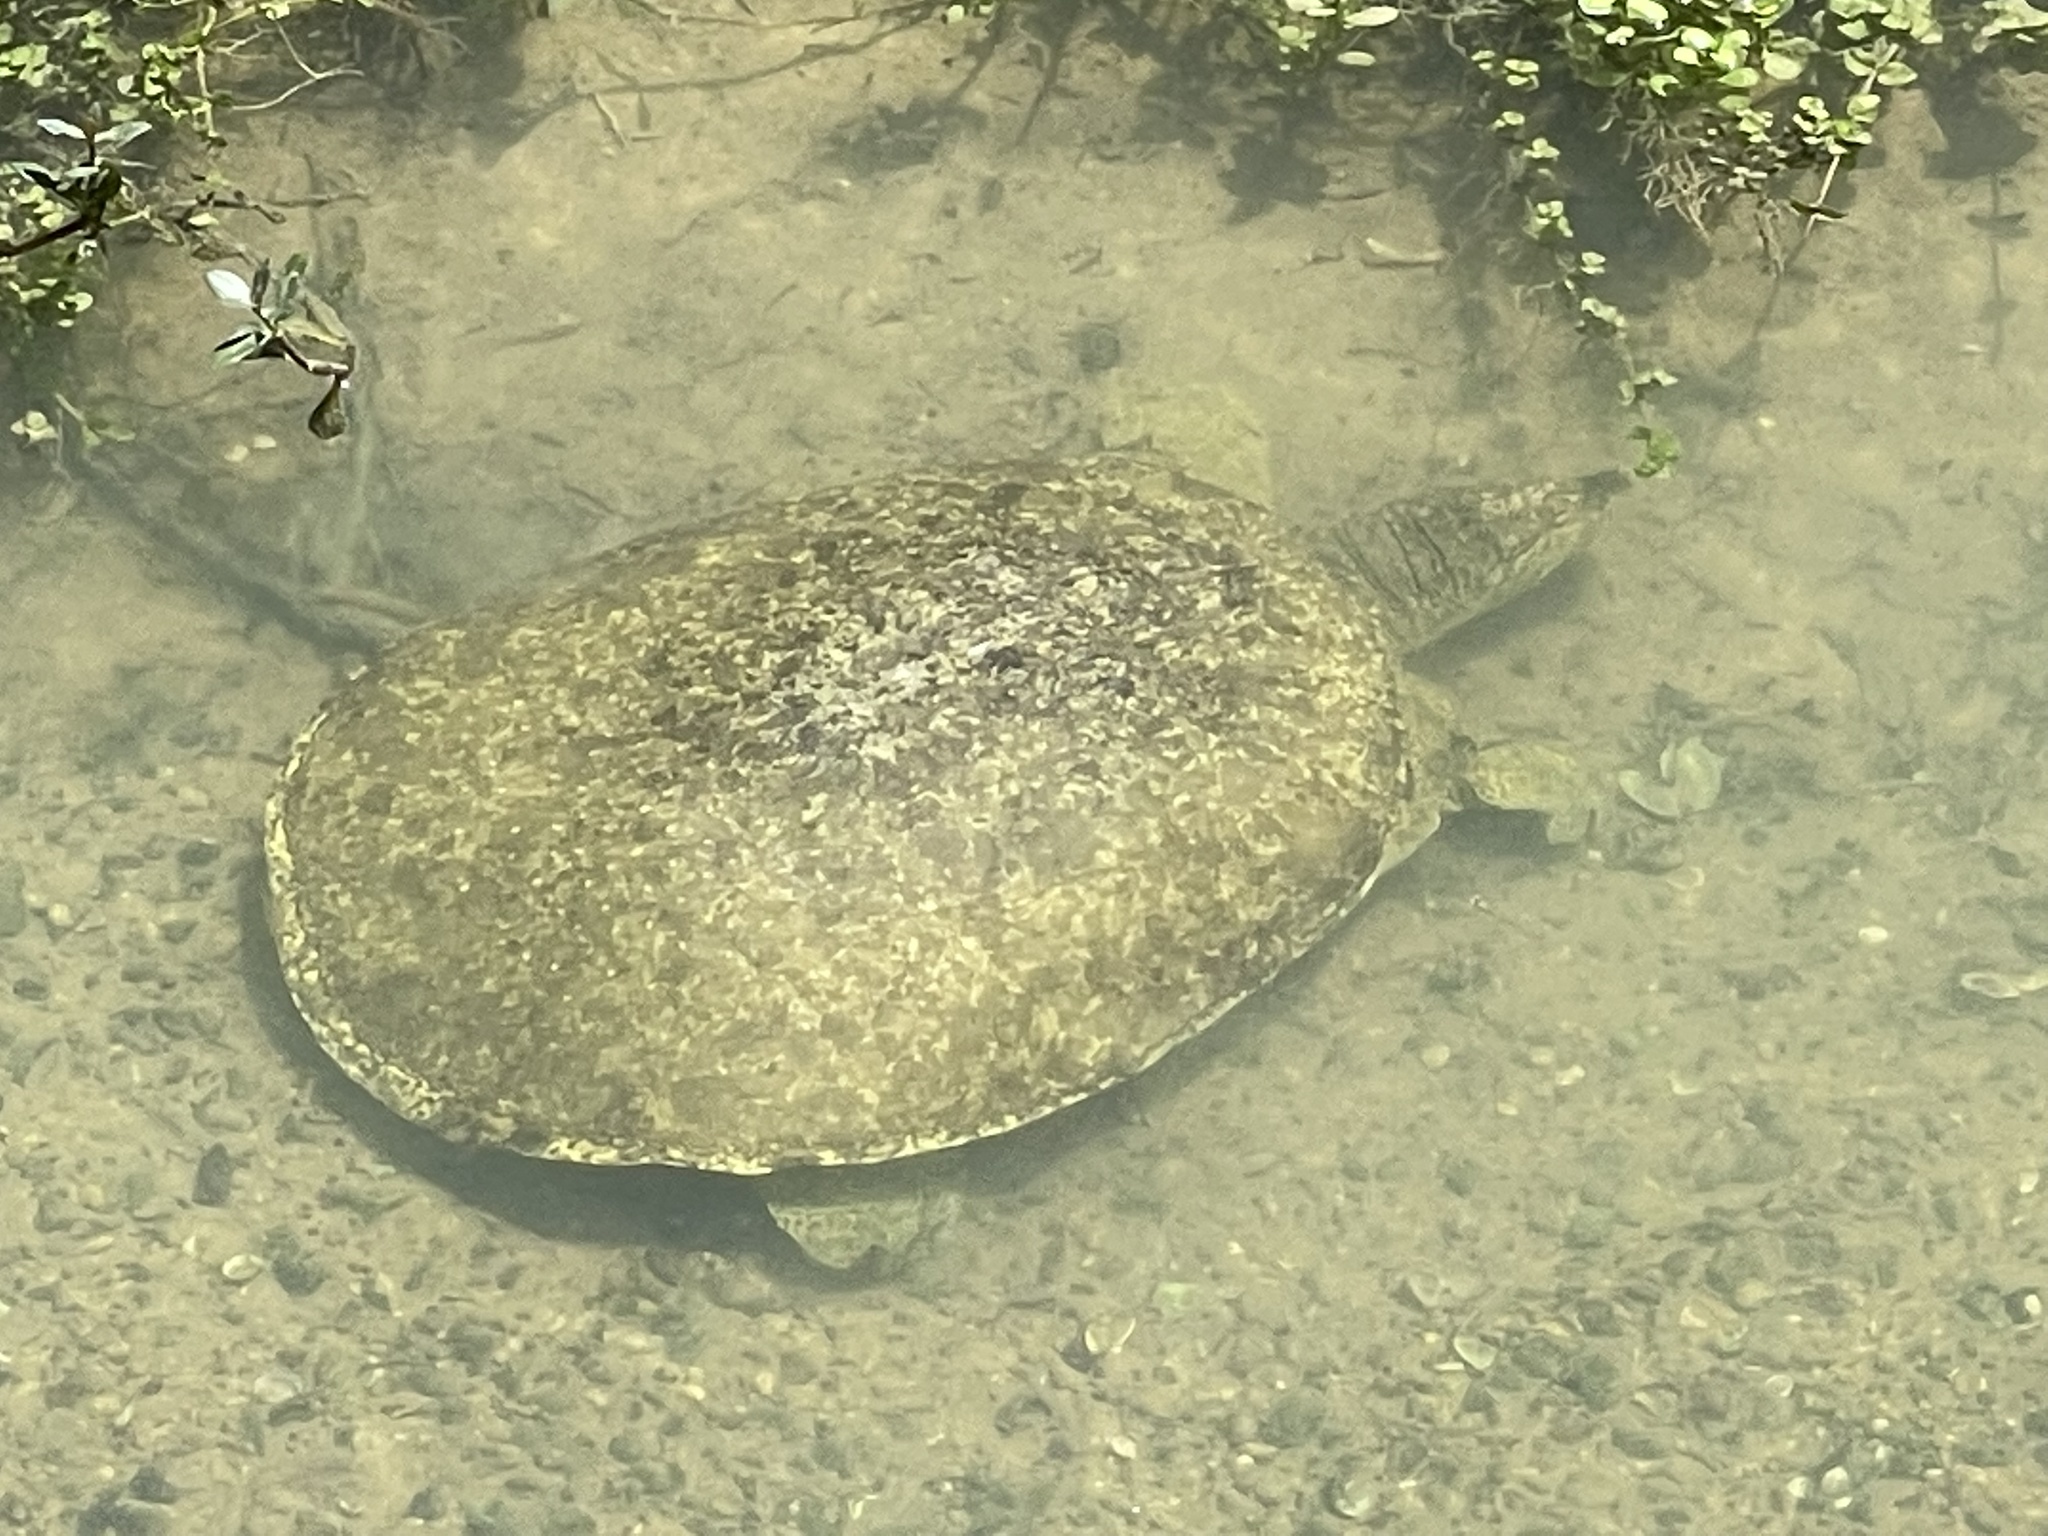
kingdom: Animalia
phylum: Chordata
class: Testudines
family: Trionychidae
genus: Apalone
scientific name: Apalone spinifera
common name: Spiny softshell turtle
